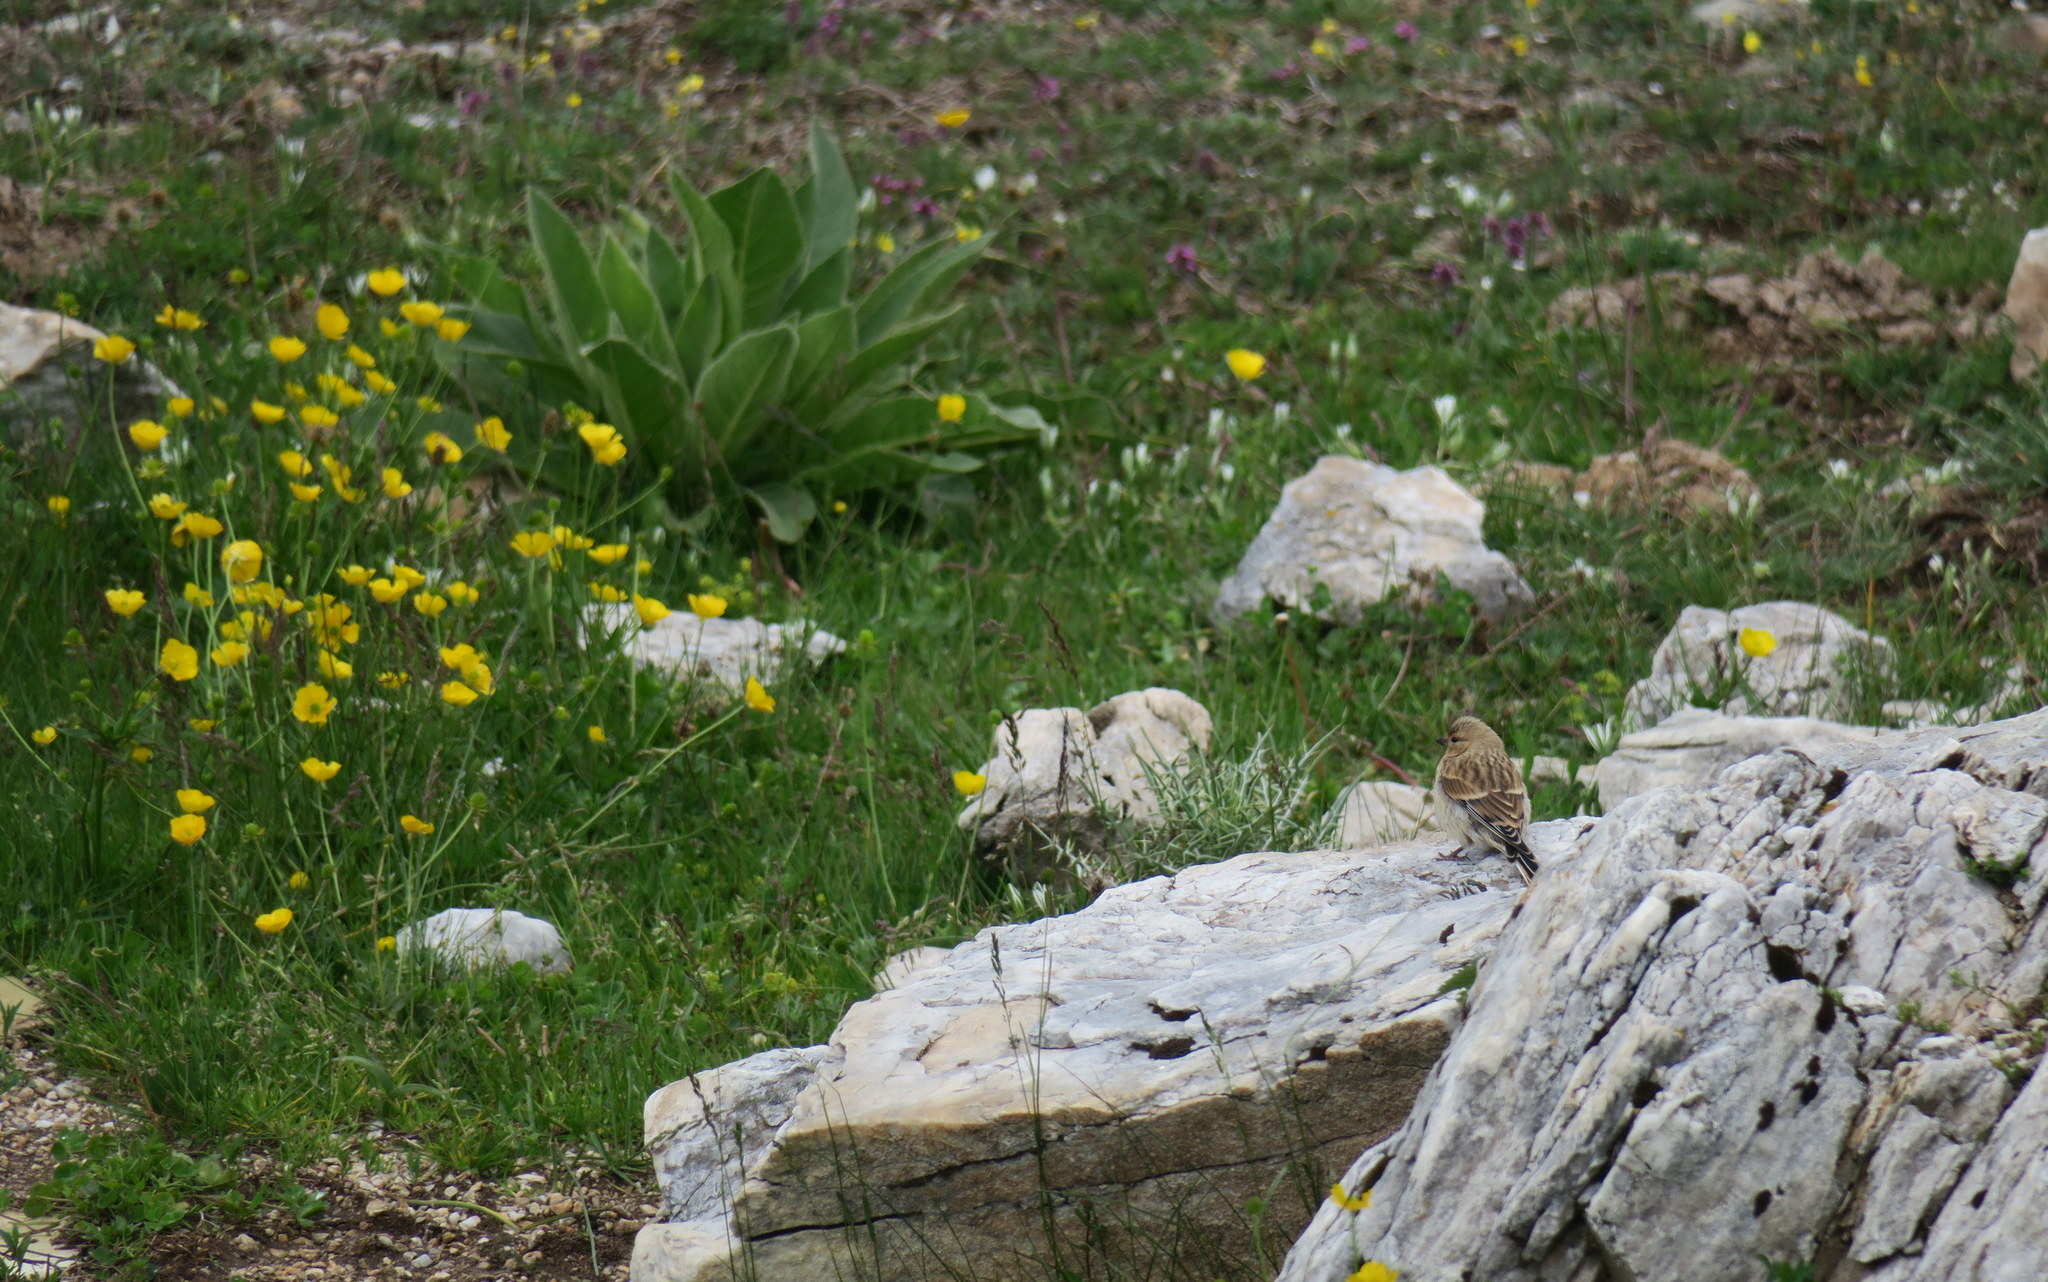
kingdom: Animalia
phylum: Chordata
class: Aves
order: Passeriformes
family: Fringillidae
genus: Linaria
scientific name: Linaria cannabina
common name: Common linnet
